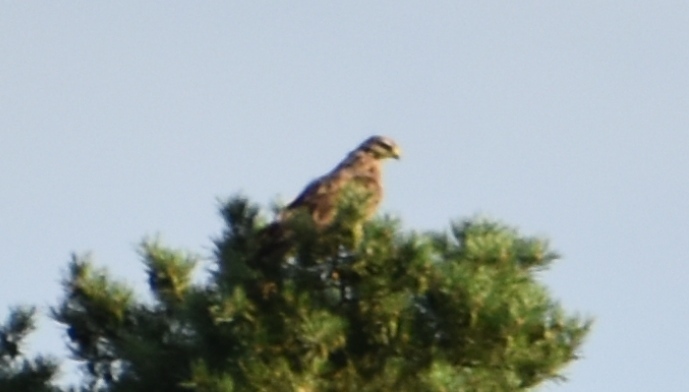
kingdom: Animalia
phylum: Chordata
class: Aves
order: Accipitriformes
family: Accipitridae
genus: Buteo
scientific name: Buteo buteo
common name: Common buzzard
